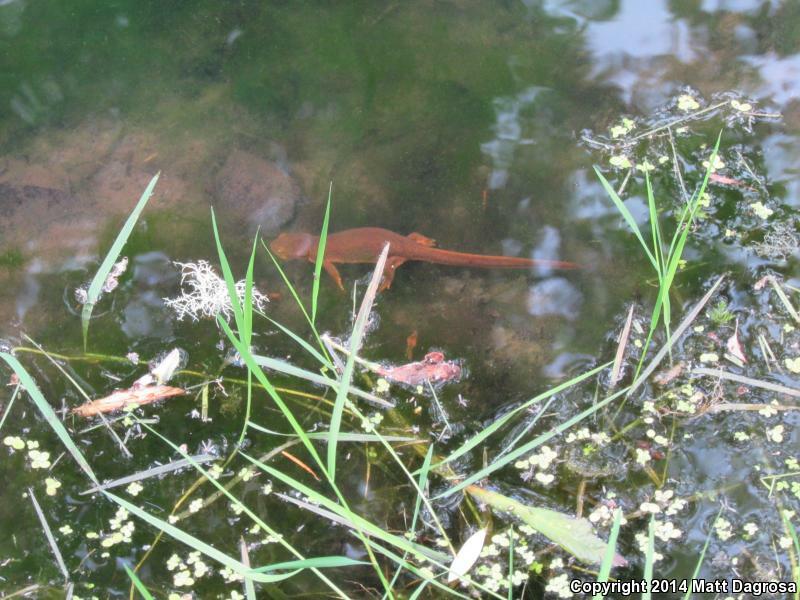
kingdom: Animalia
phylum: Chordata
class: Amphibia
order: Caudata
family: Salamandridae
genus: Taricha
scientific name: Taricha granulosa
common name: Roughskin newt
